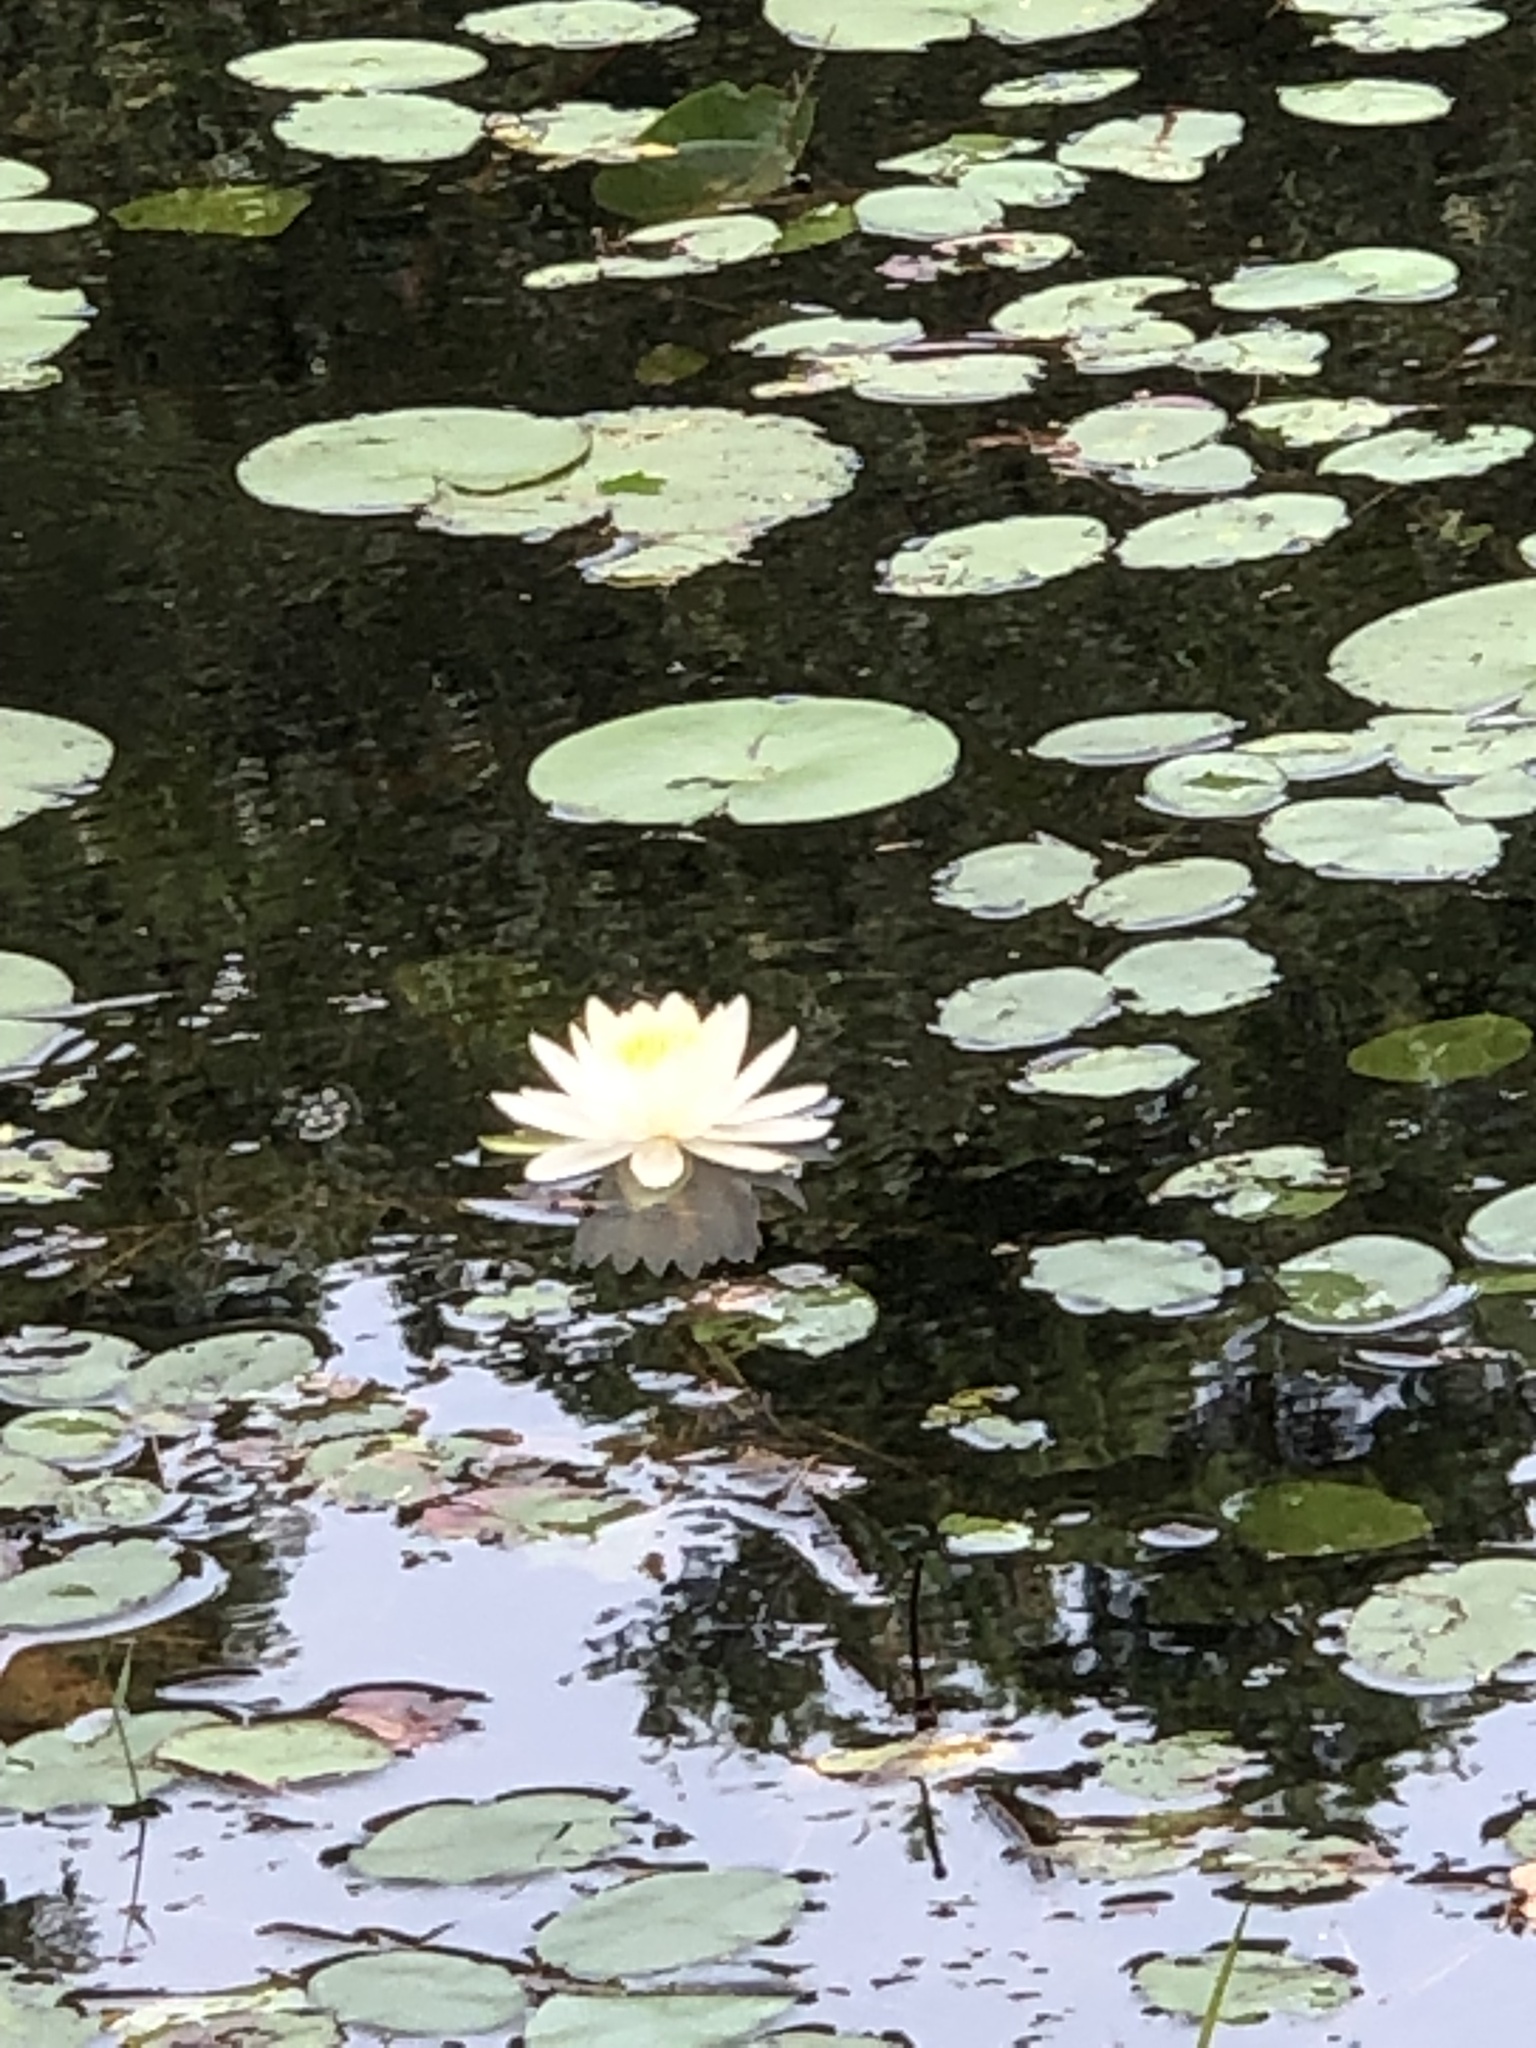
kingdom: Plantae
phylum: Tracheophyta
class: Magnoliopsida
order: Nymphaeales
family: Nymphaeaceae
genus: Nymphaea
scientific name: Nymphaea odorata
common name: Fragrant water-lily
